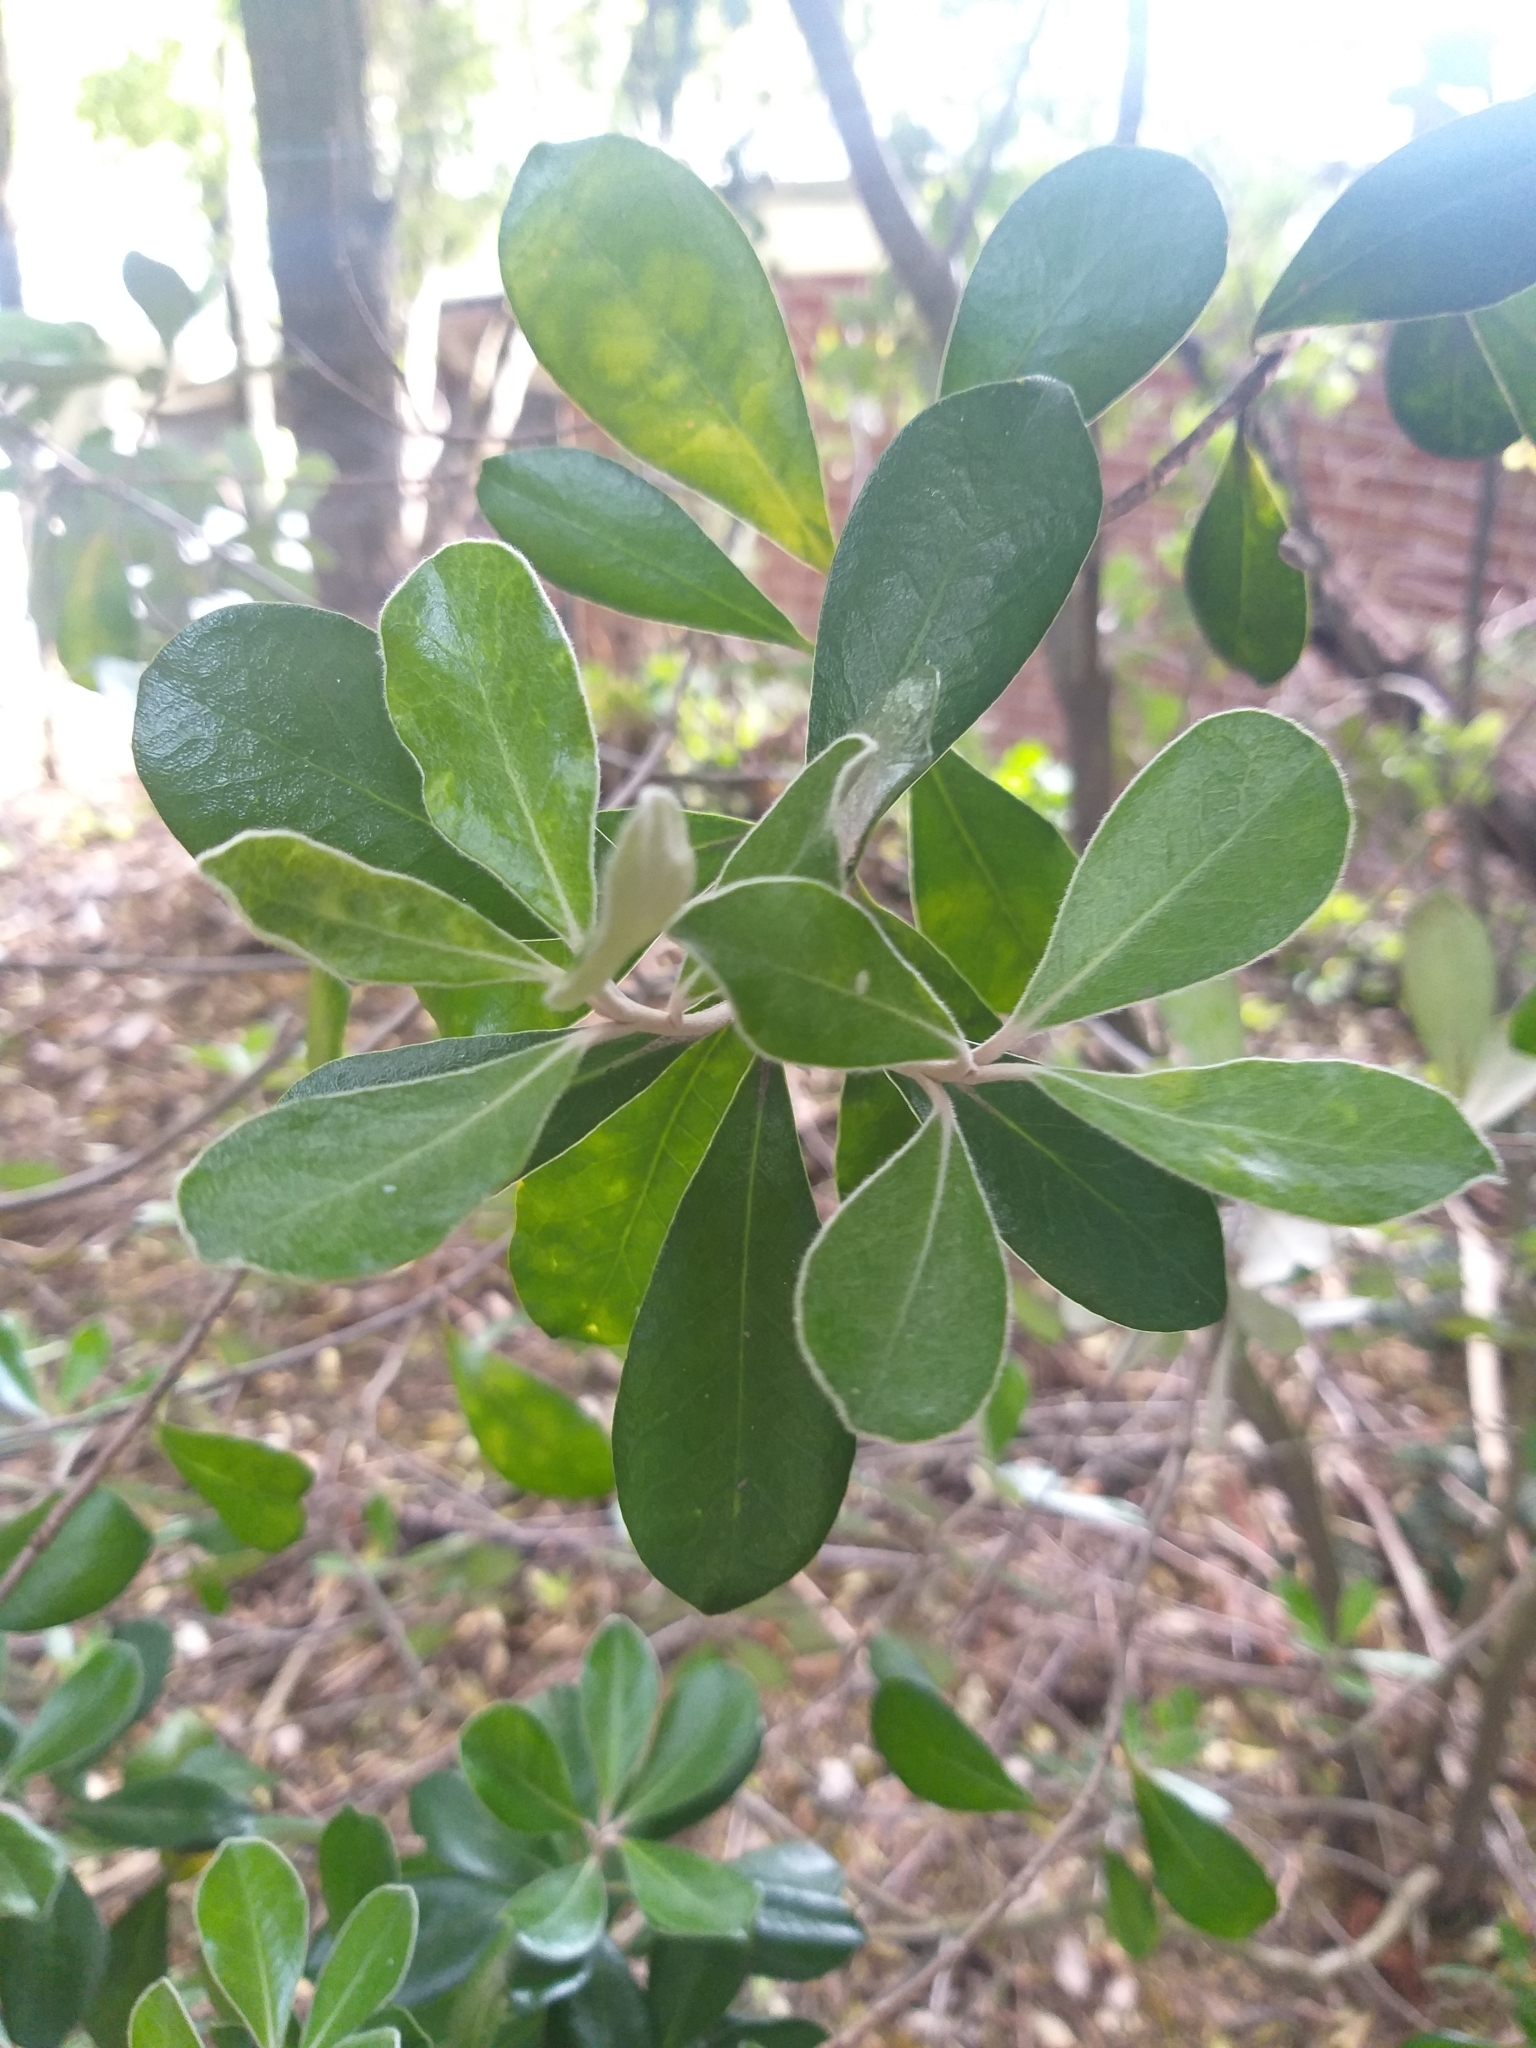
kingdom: Plantae
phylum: Tracheophyta
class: Magnoliopsida
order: Apiales
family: Pittosporaceae
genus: Pittosporum
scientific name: Pittosporum crassifolium
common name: Karo
